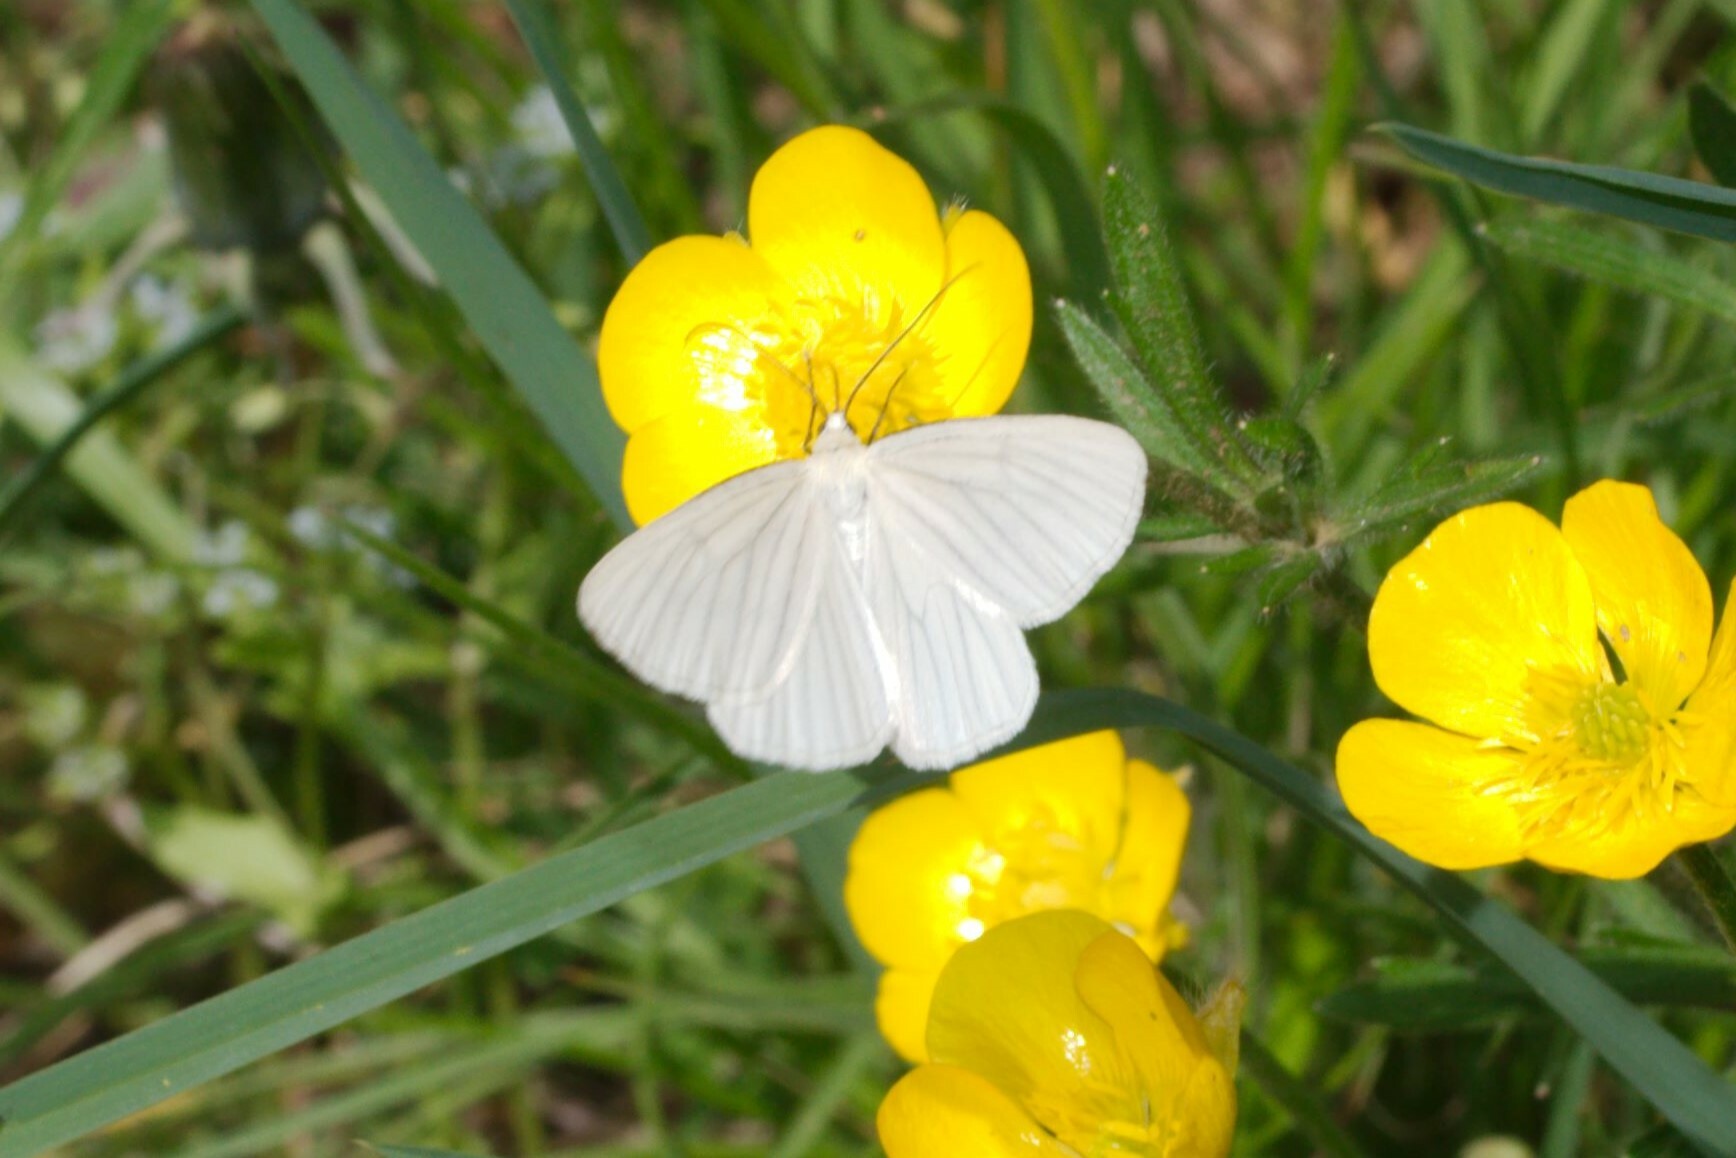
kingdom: Animalia
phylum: Arthropoda
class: Insecta
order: Lepidoptera
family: Geometridae
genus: Siona
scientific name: Siona lineata
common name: Black-veined moth
